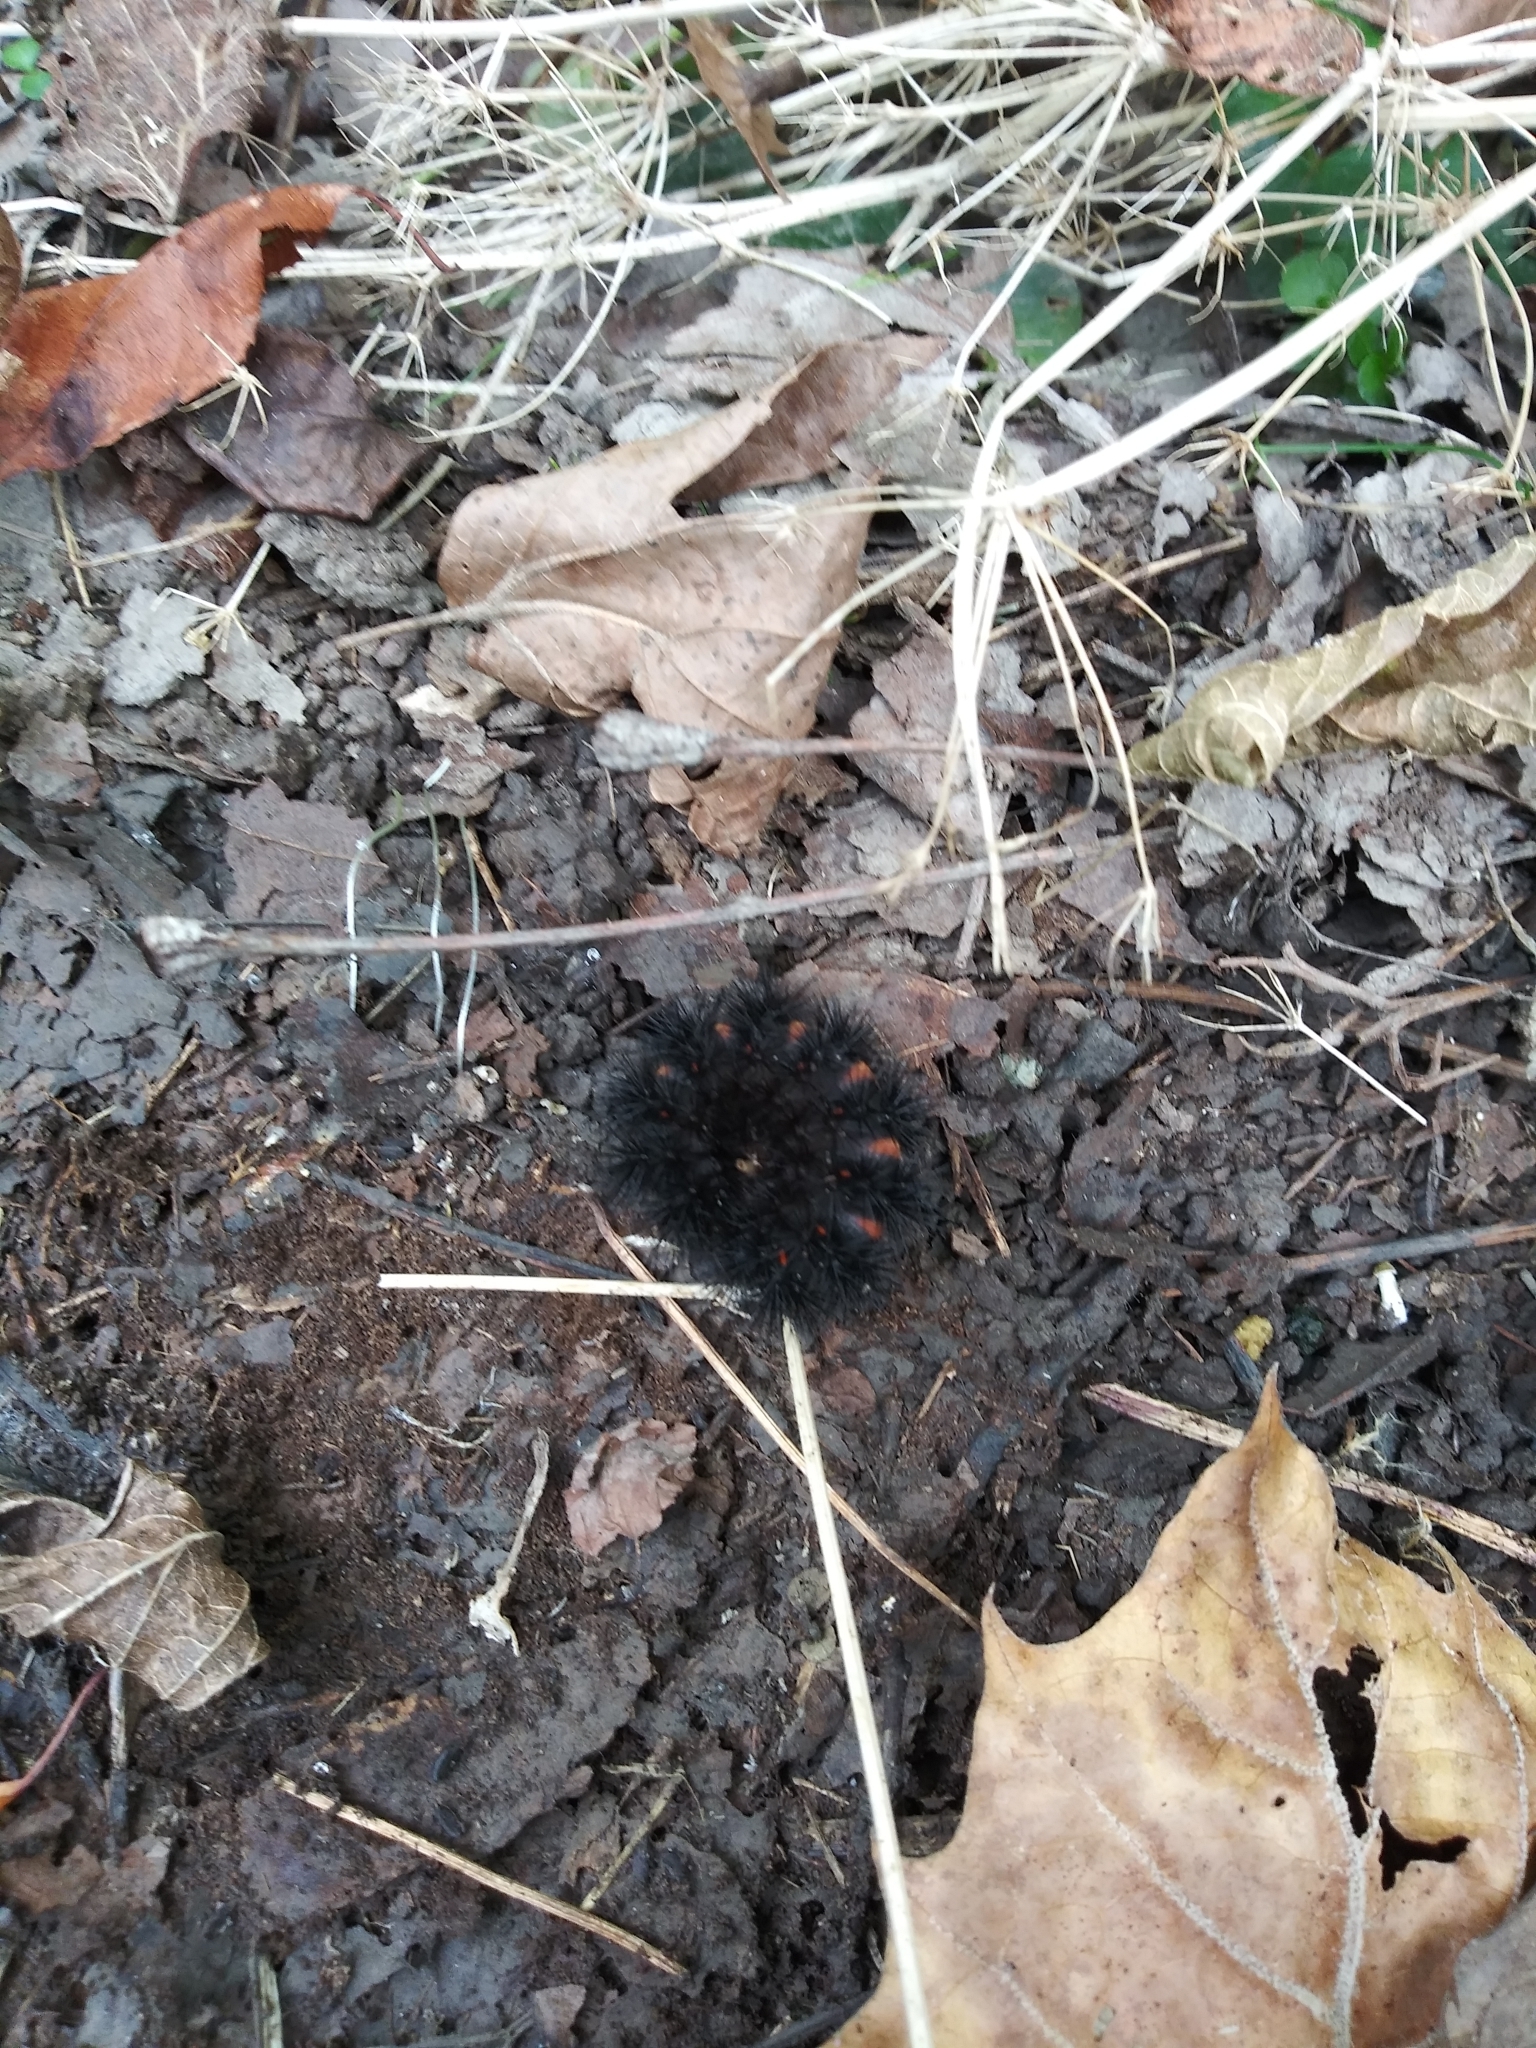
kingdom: Animalia
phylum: Arthropoda
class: Insecta
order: Lepidoptera
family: Erebidae
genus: Hypercompe
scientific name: Hypercompe scribonia
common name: Giant leopard moth
